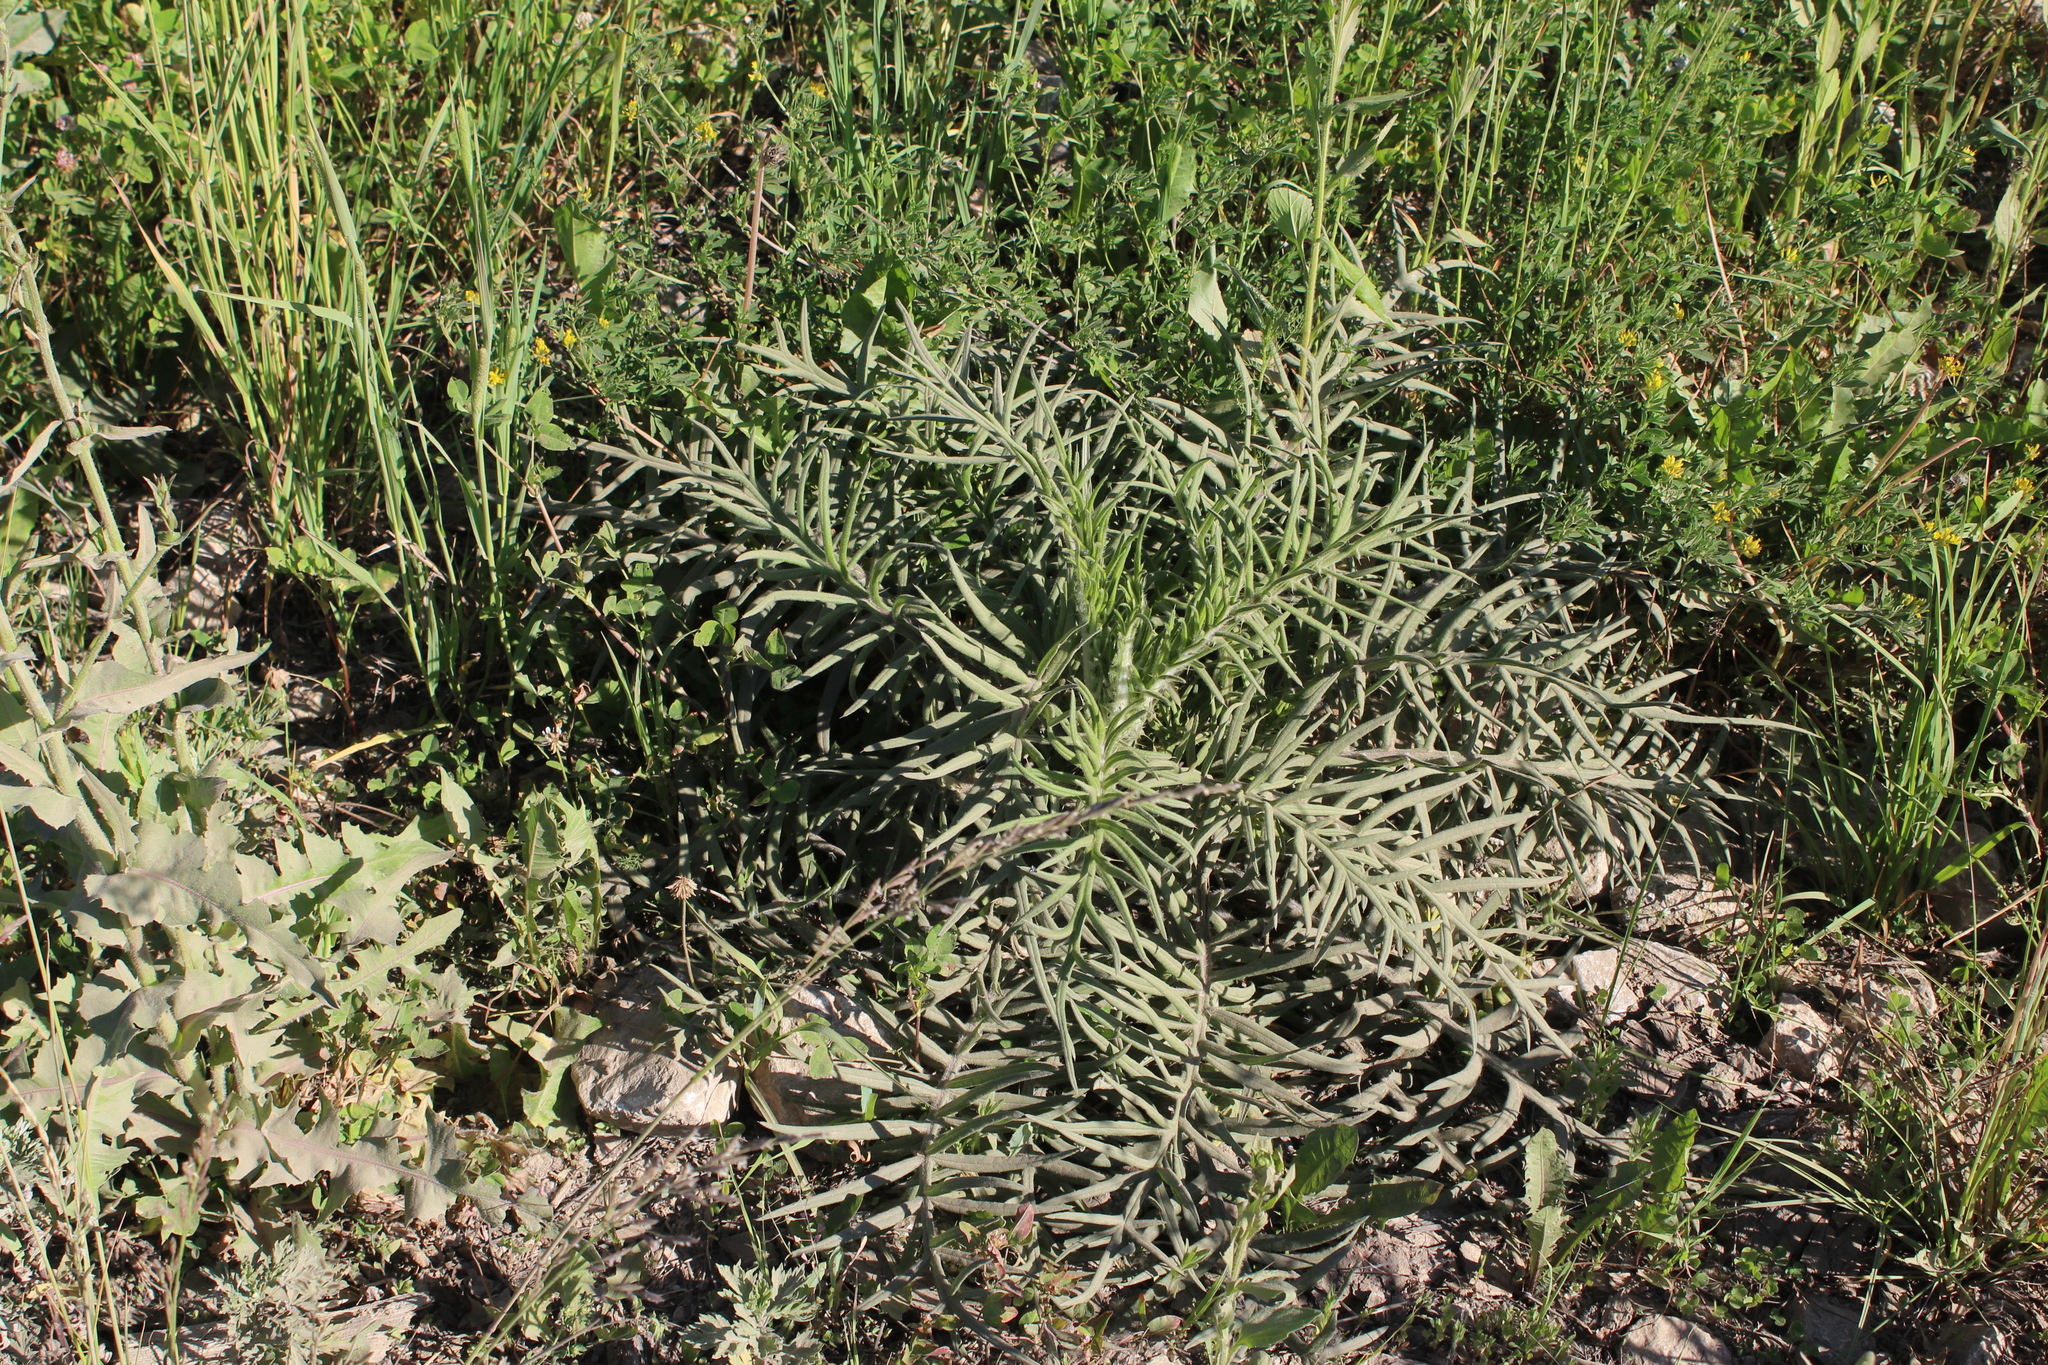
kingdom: Plantae
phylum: Tracheophyta
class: Magnoliopsida
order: Asterales
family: Asteraceae
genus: Lophiolepis
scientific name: Lophiolepis decussata
